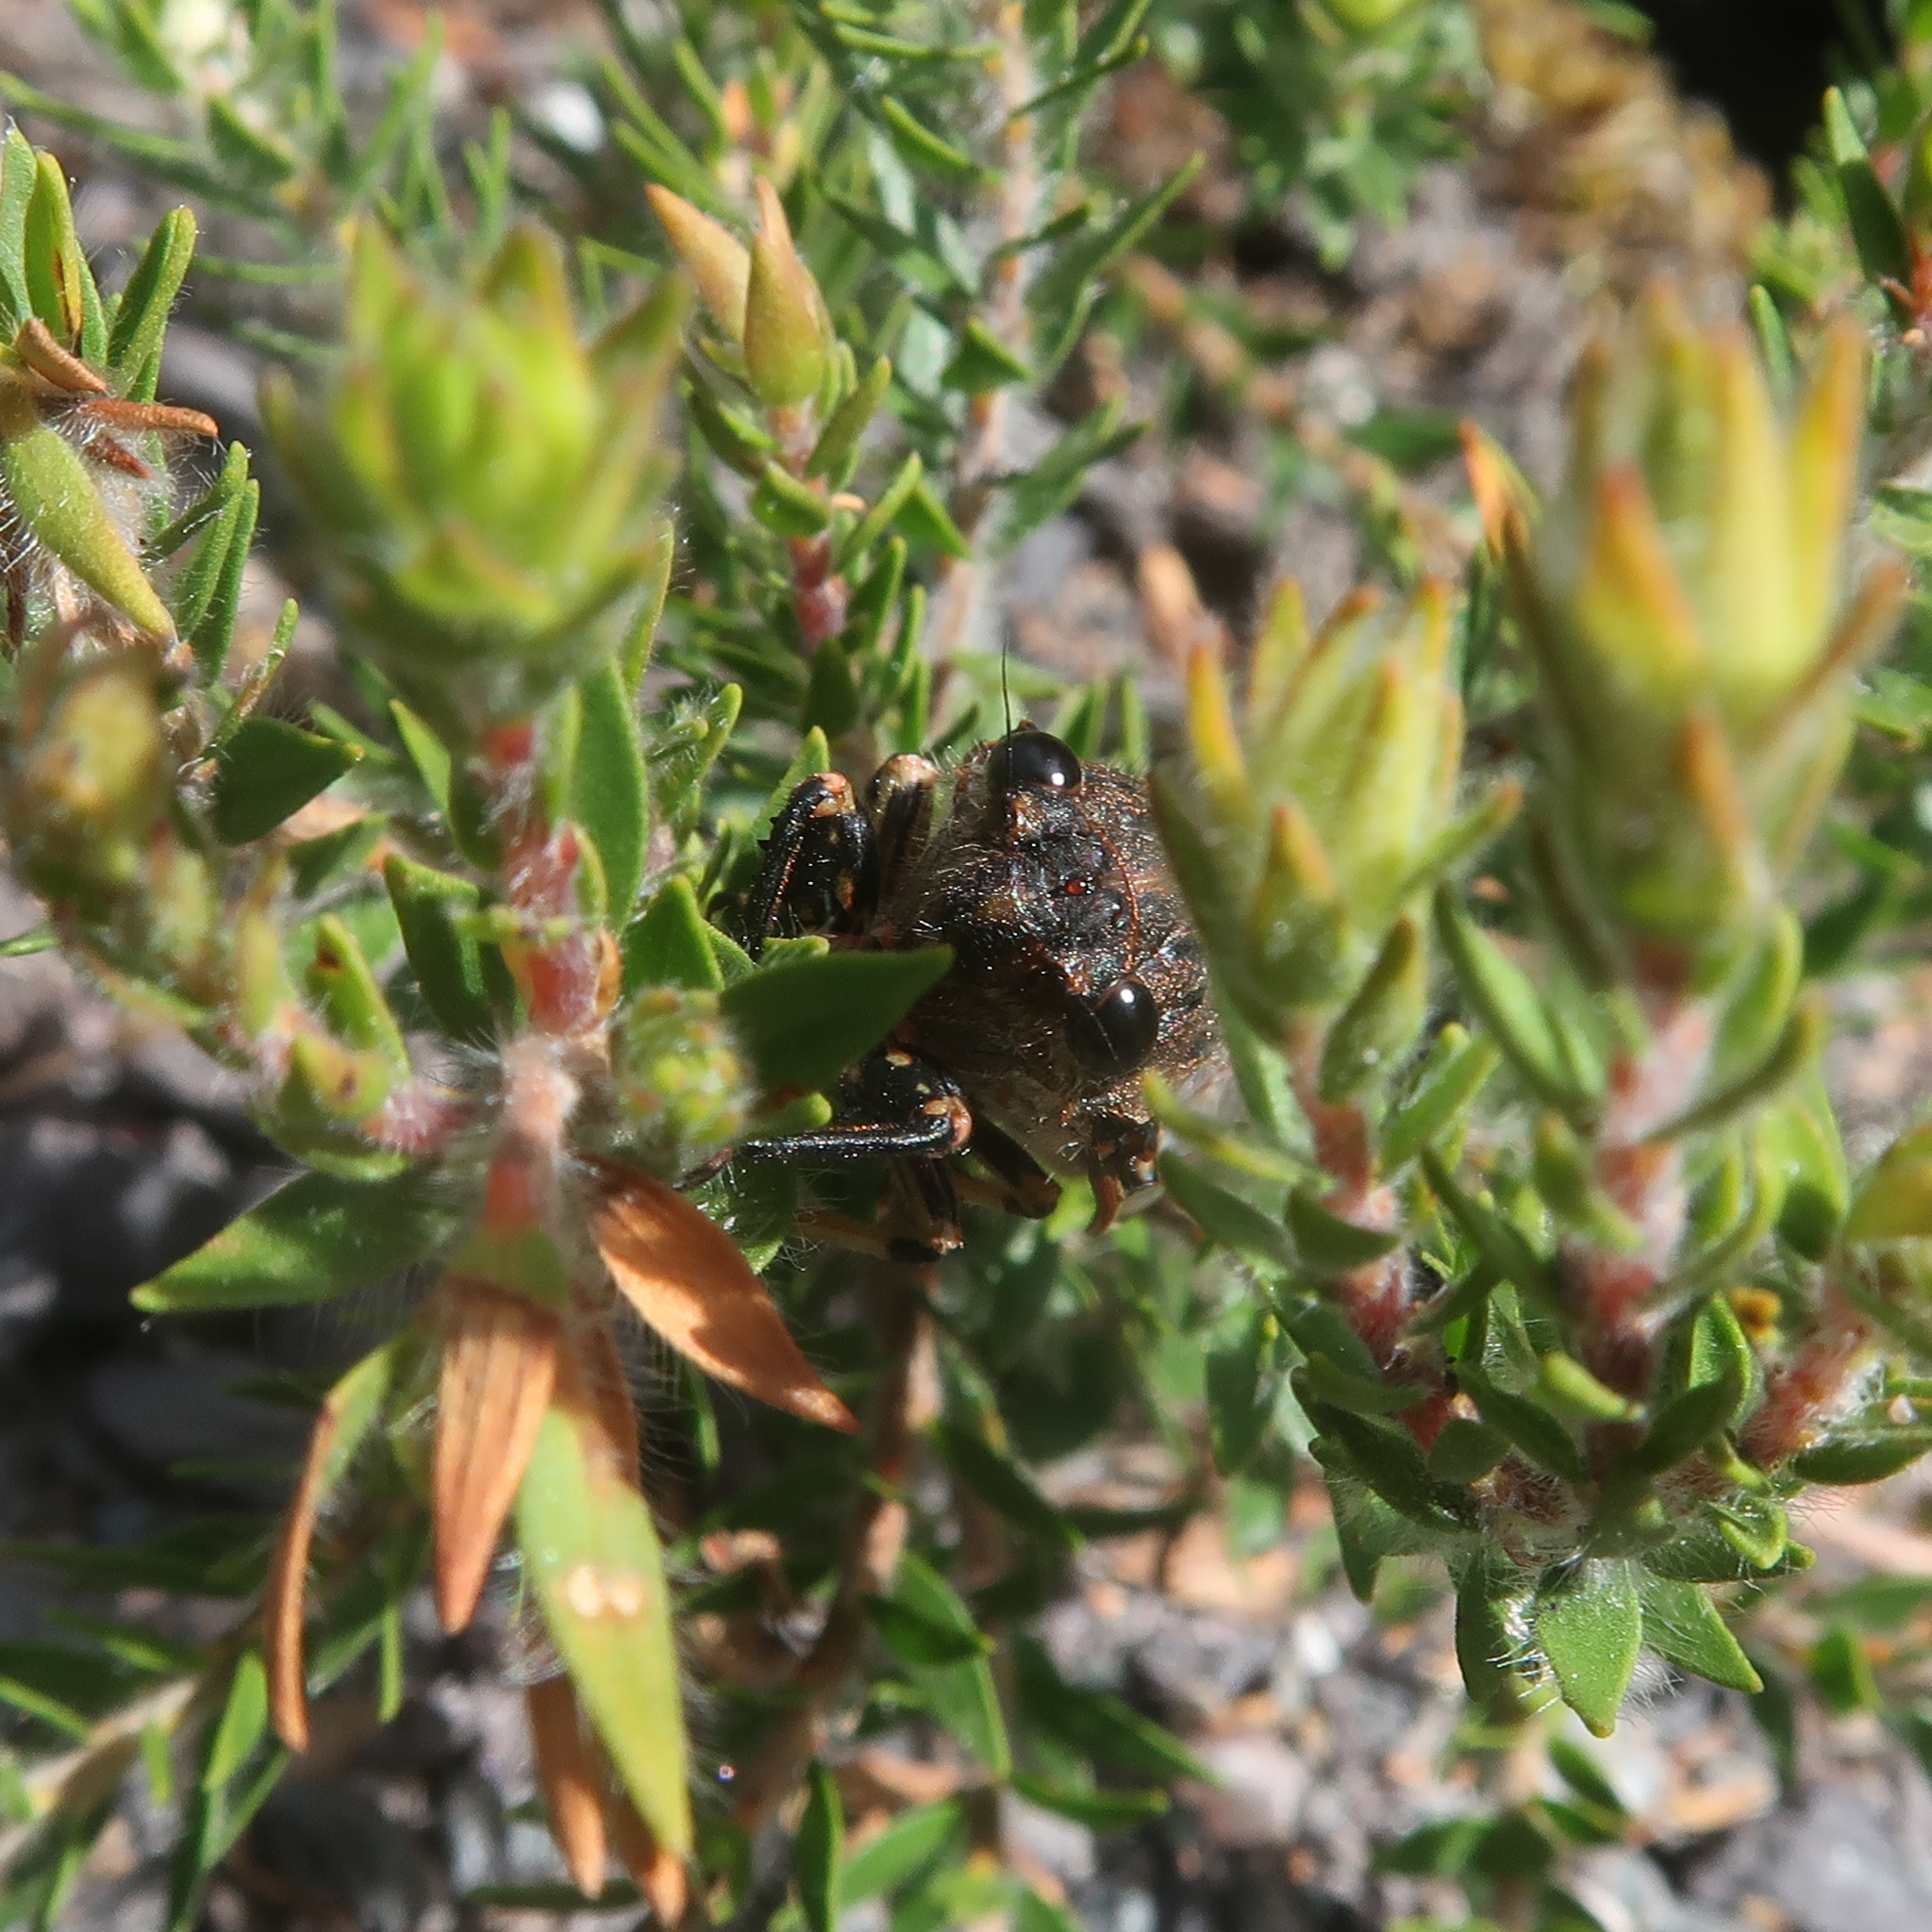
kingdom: Animalia
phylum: Arthropoda
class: Insecta
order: Hemiptera
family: Cicadidae
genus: Diemeniana
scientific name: Diemeniana cincta
